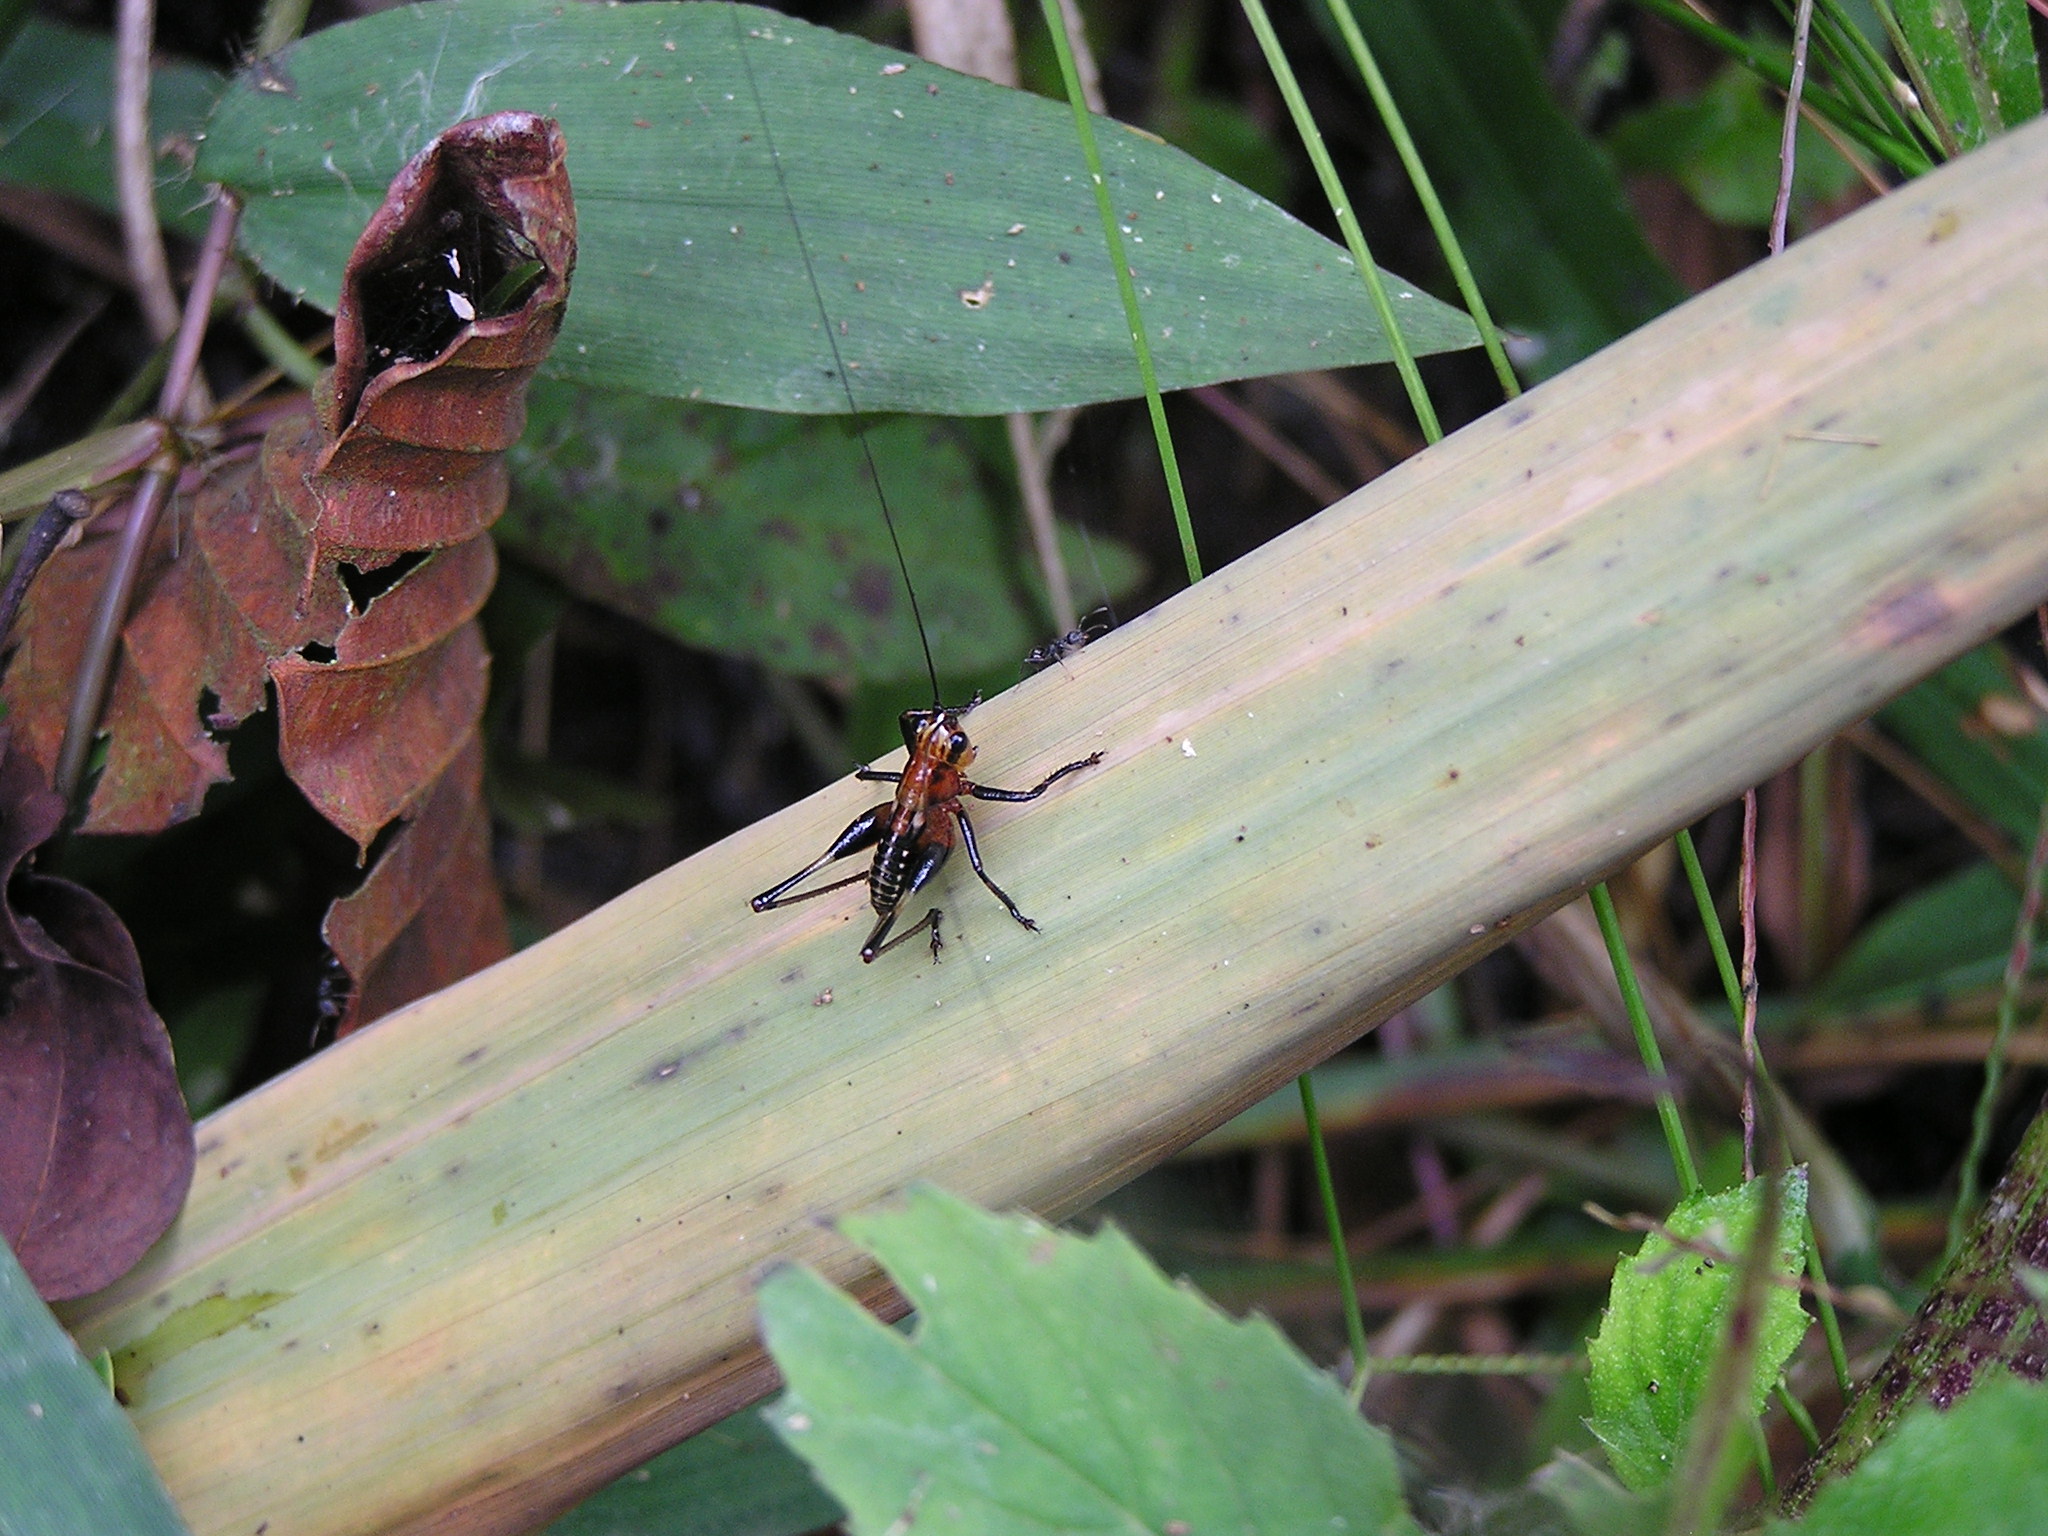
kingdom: Animalia
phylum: Arthropoda
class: Insecta
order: Orthoptera
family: Tettigoniidae
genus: Conocephalus
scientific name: Conocephalus melaenus
